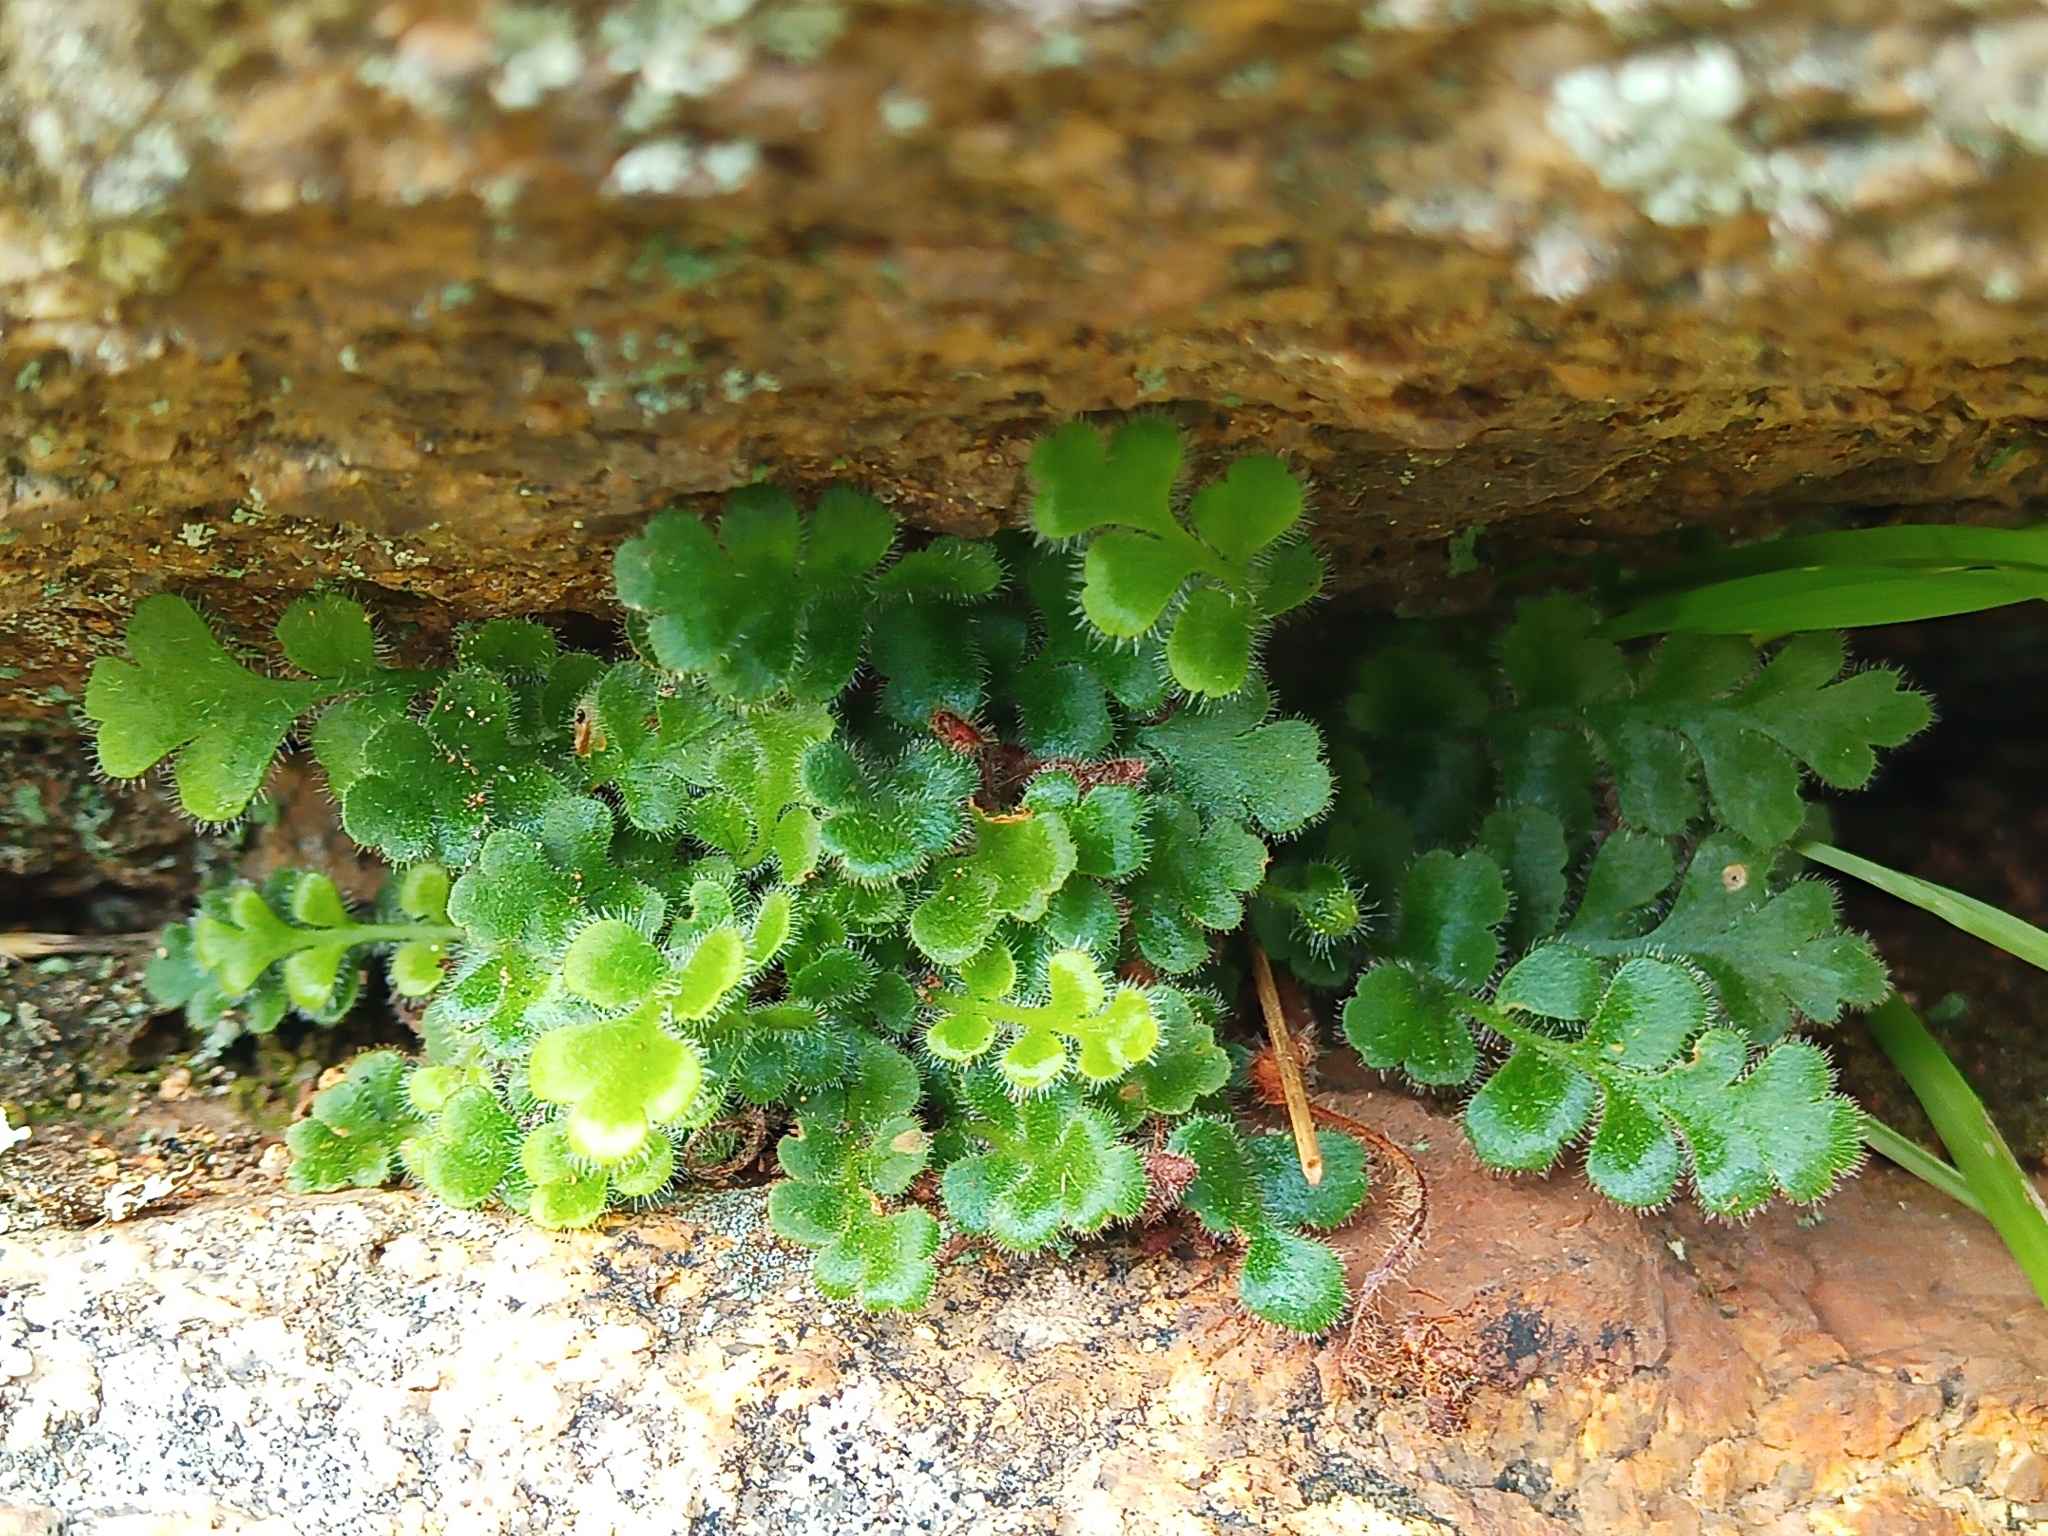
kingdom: Plantae
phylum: Tracheophyta
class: Polypodiopsida
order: Polypodiales
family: Aspleniaceae
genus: Asplenium
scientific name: Asplenium subglandulosum
